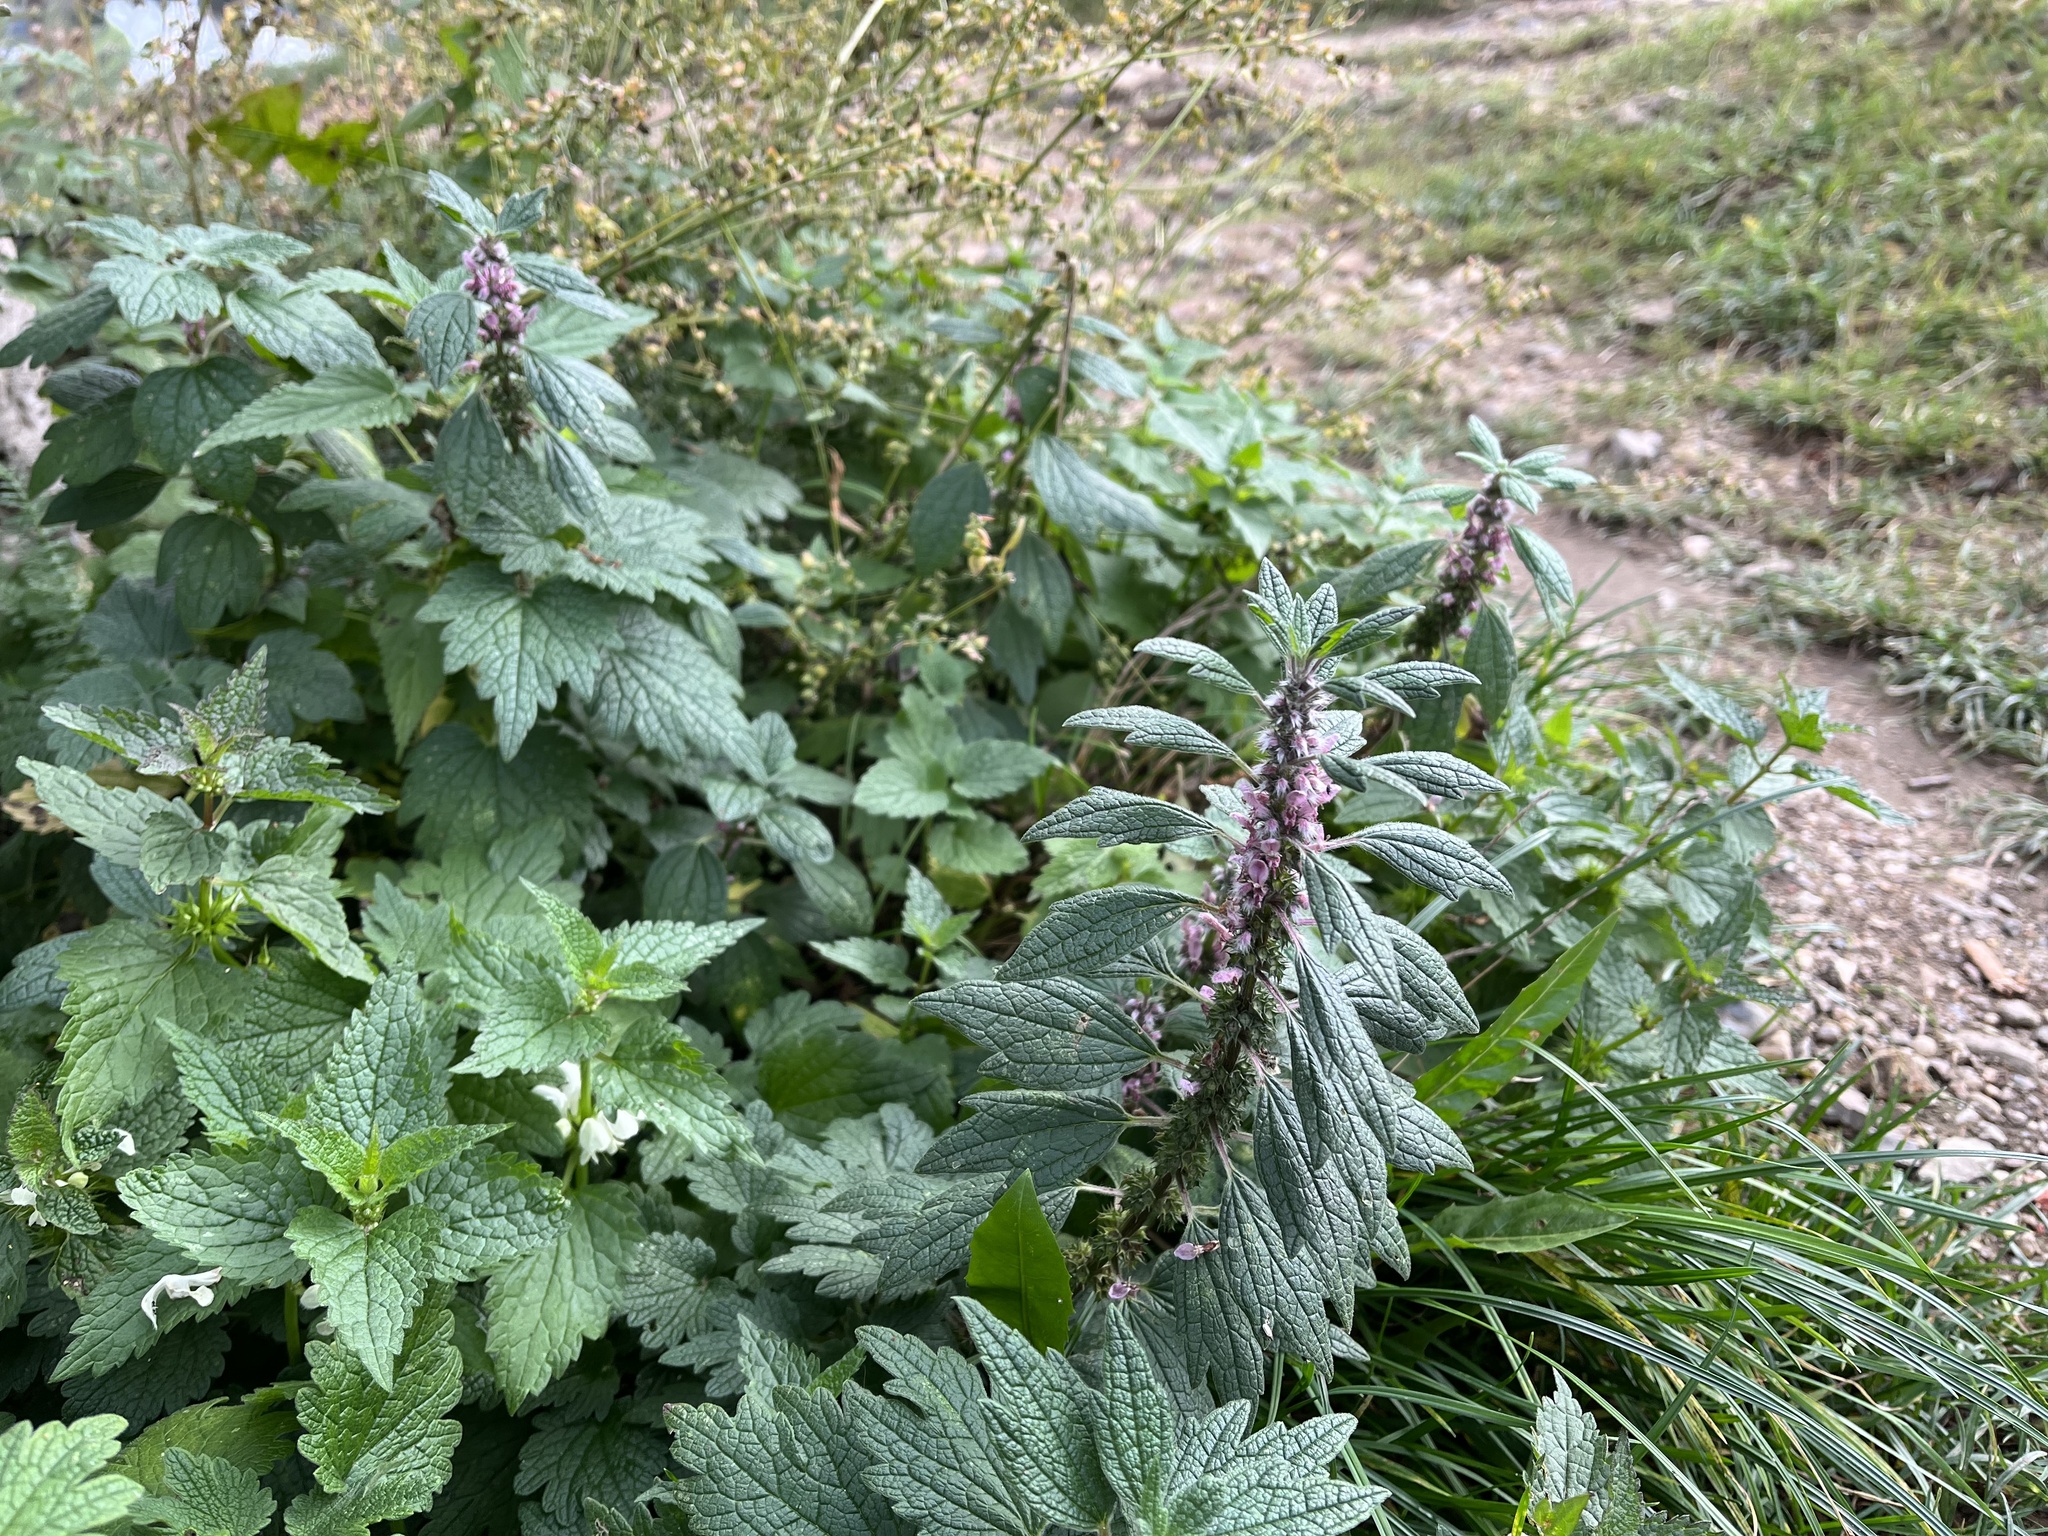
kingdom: Plantae
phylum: Tracheophyta
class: Magnoliopsida
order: Lamiales
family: Lamiaceae
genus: Leonurus
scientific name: Leonurus cardiaca
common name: Motherwort
